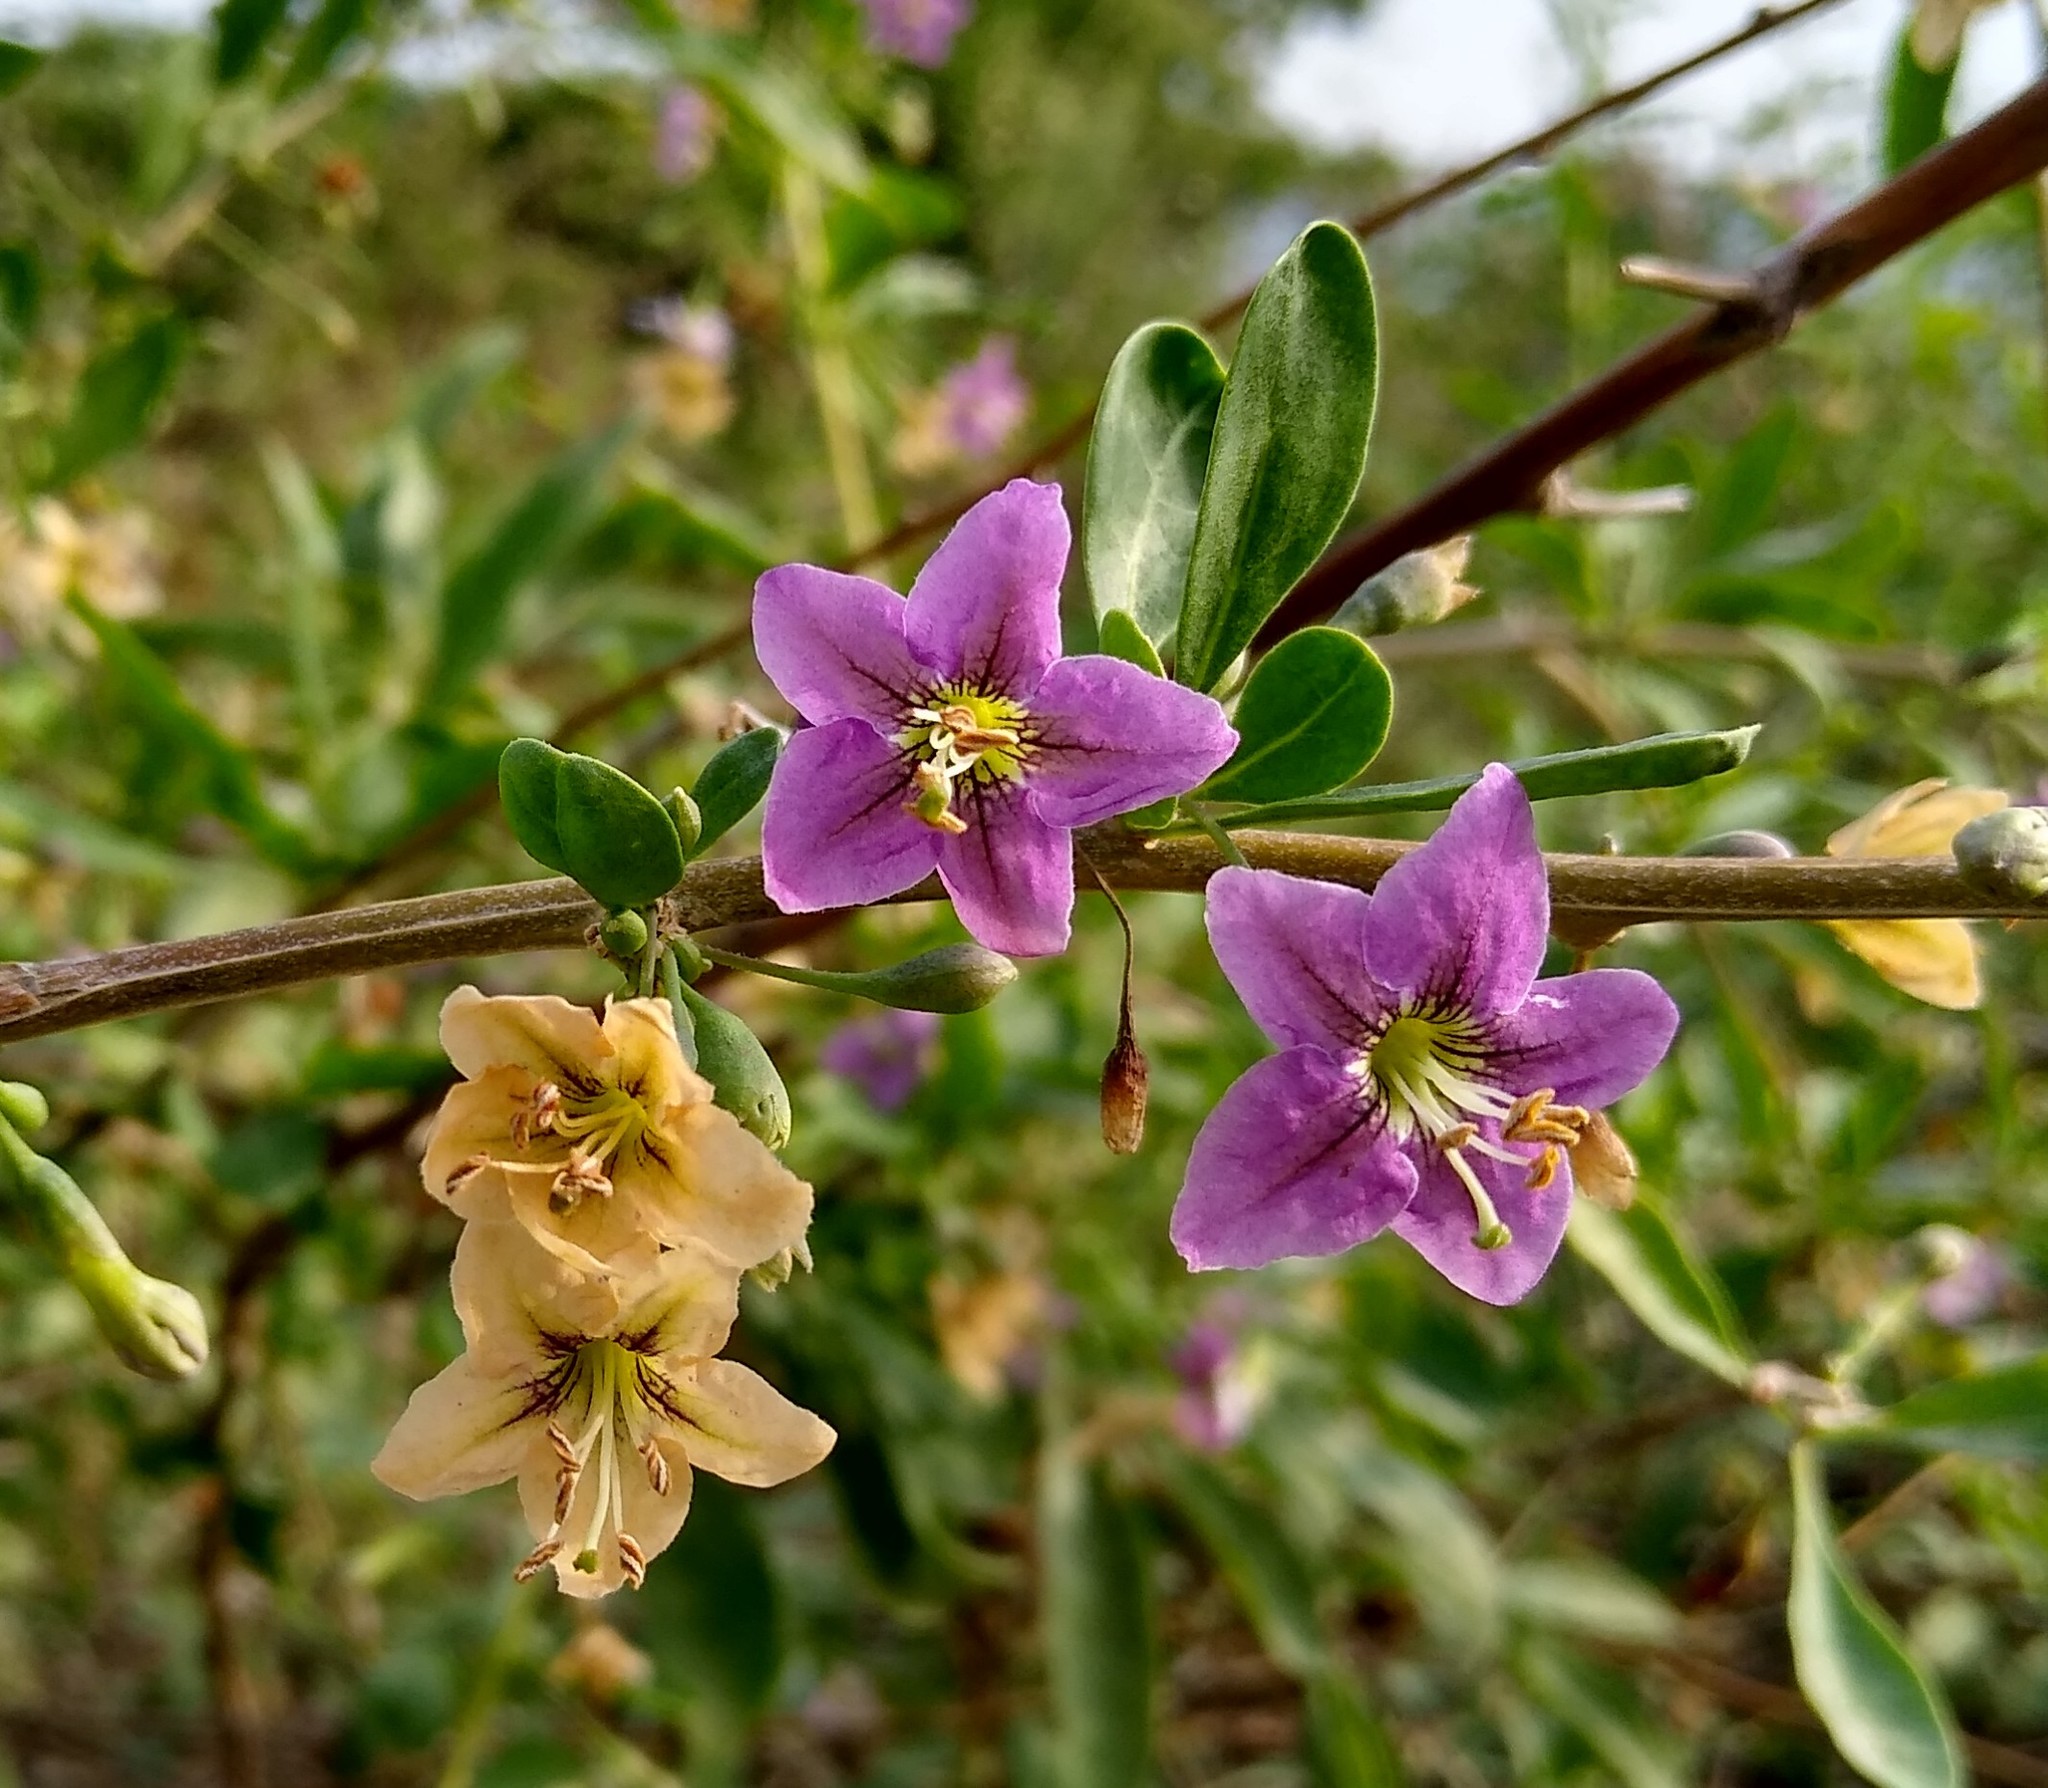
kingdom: Plantae
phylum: Tracheophyta
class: Magnoliopsida
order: Solanales
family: Solanaceae
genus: Lycium
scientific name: Lycium barbarum
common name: Duke of argyll's teaplant
